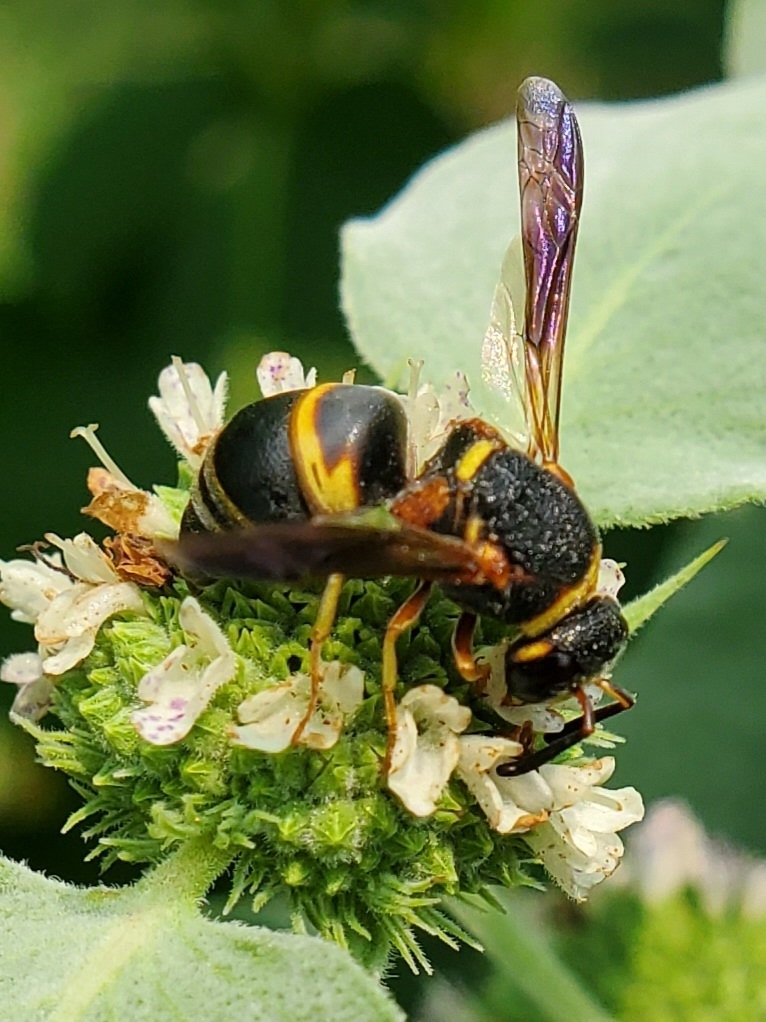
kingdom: Animalia
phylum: Arthropoda
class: Insecta
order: Hymenoptera
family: Eumenidae
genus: Euodynerus
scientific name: Euodynerus hidalgo
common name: Wasp
